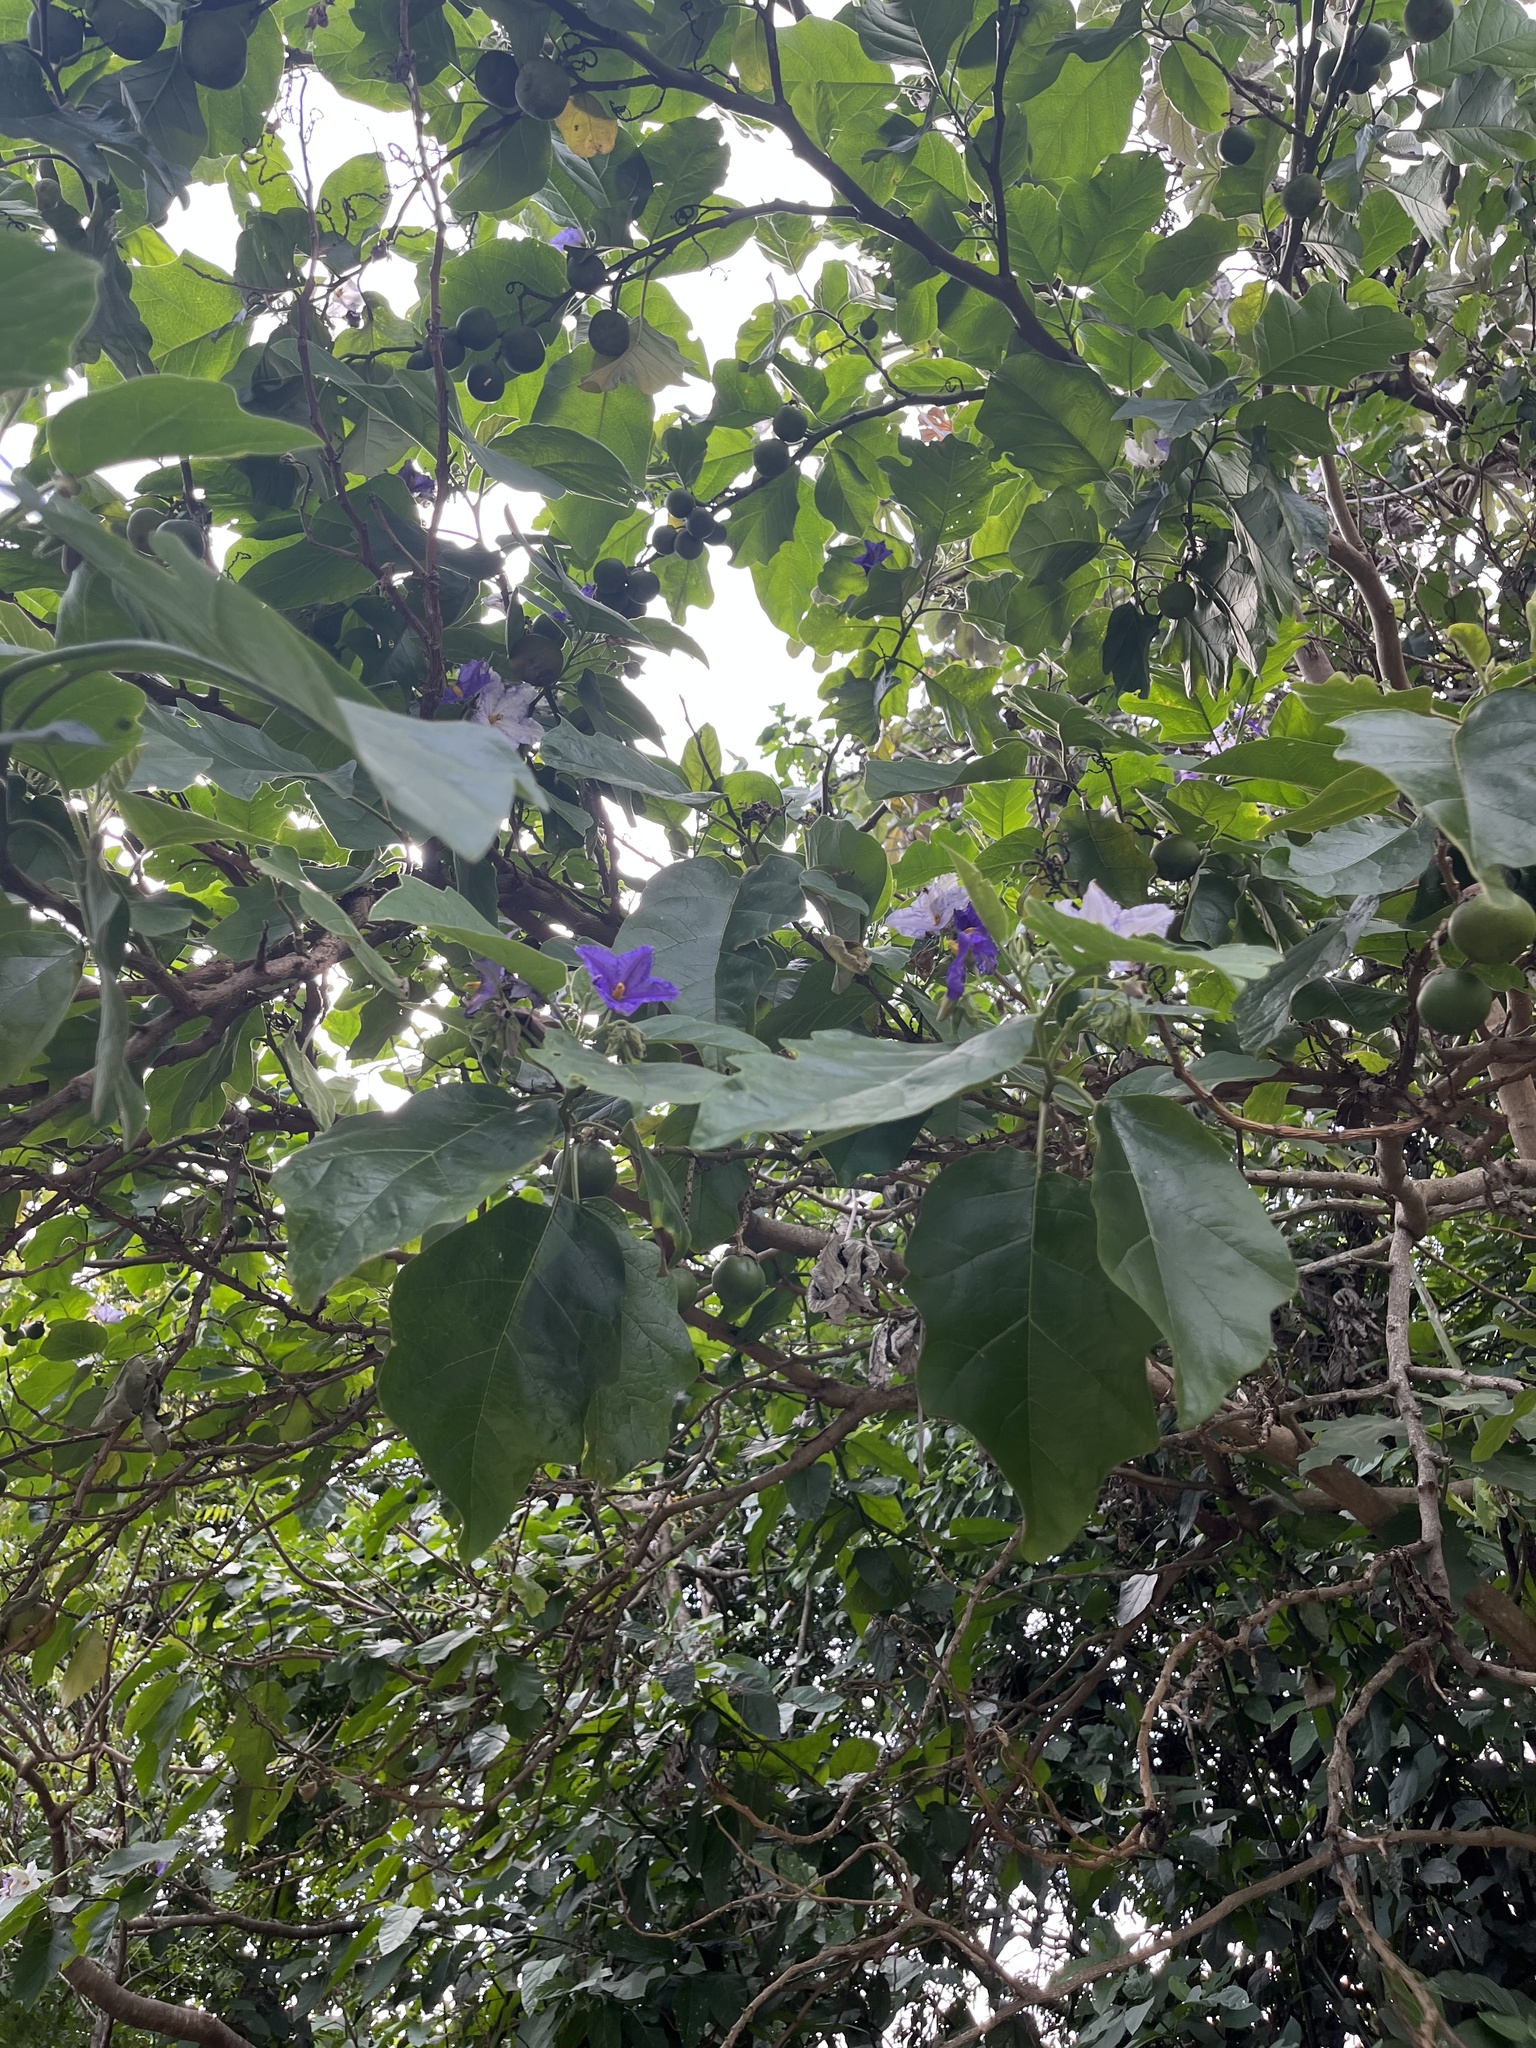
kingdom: Plantae
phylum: Tracheophyta
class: Magnoliopsida
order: Solanales
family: Solanaceae
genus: Solanum
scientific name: Solanum wrightii
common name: Brazilian potato-tree
